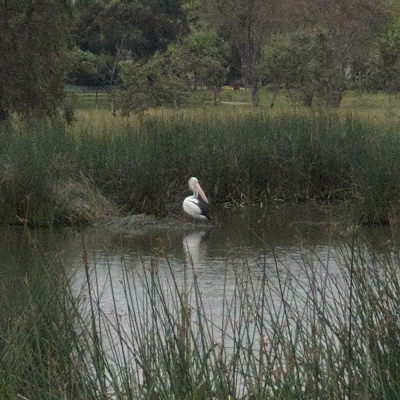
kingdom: Animalia
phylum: Chordata
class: Aves
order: Pelecaniformes
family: Pelecanidae
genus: Pelecanus
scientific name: Pelecanus conspicillatus
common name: Australian pelican
